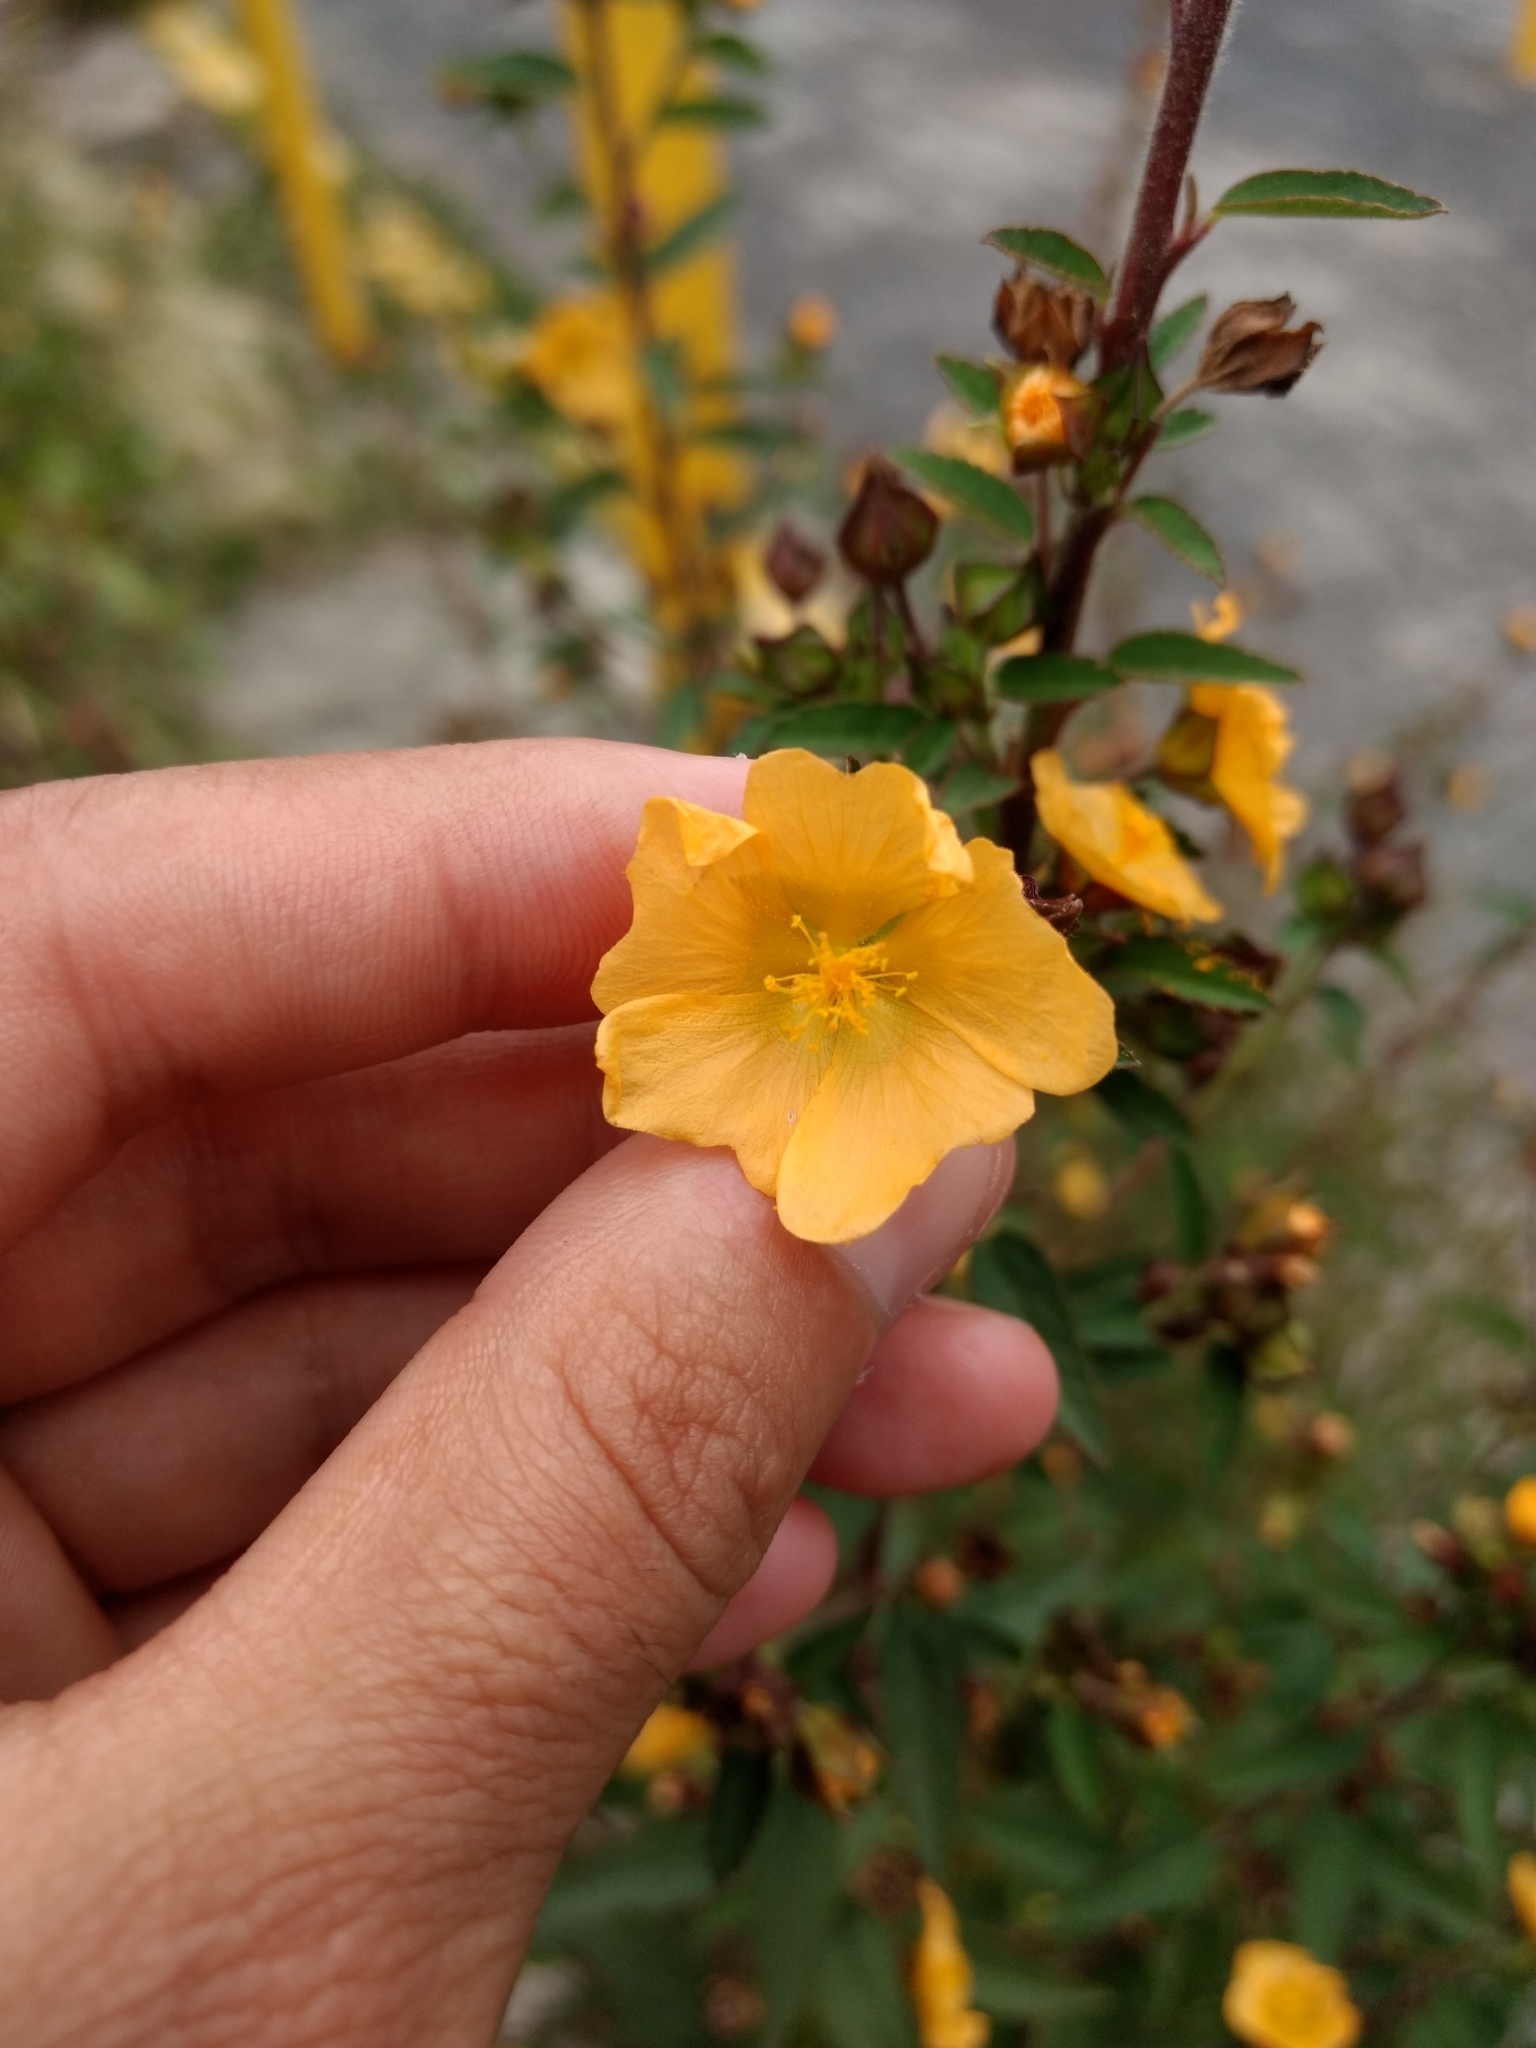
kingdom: Plantae
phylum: Tracheophyta
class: Magnoliopsida
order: Malvales
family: Malvaceae
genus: Sida
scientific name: Sida acuta
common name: Common wireweed
